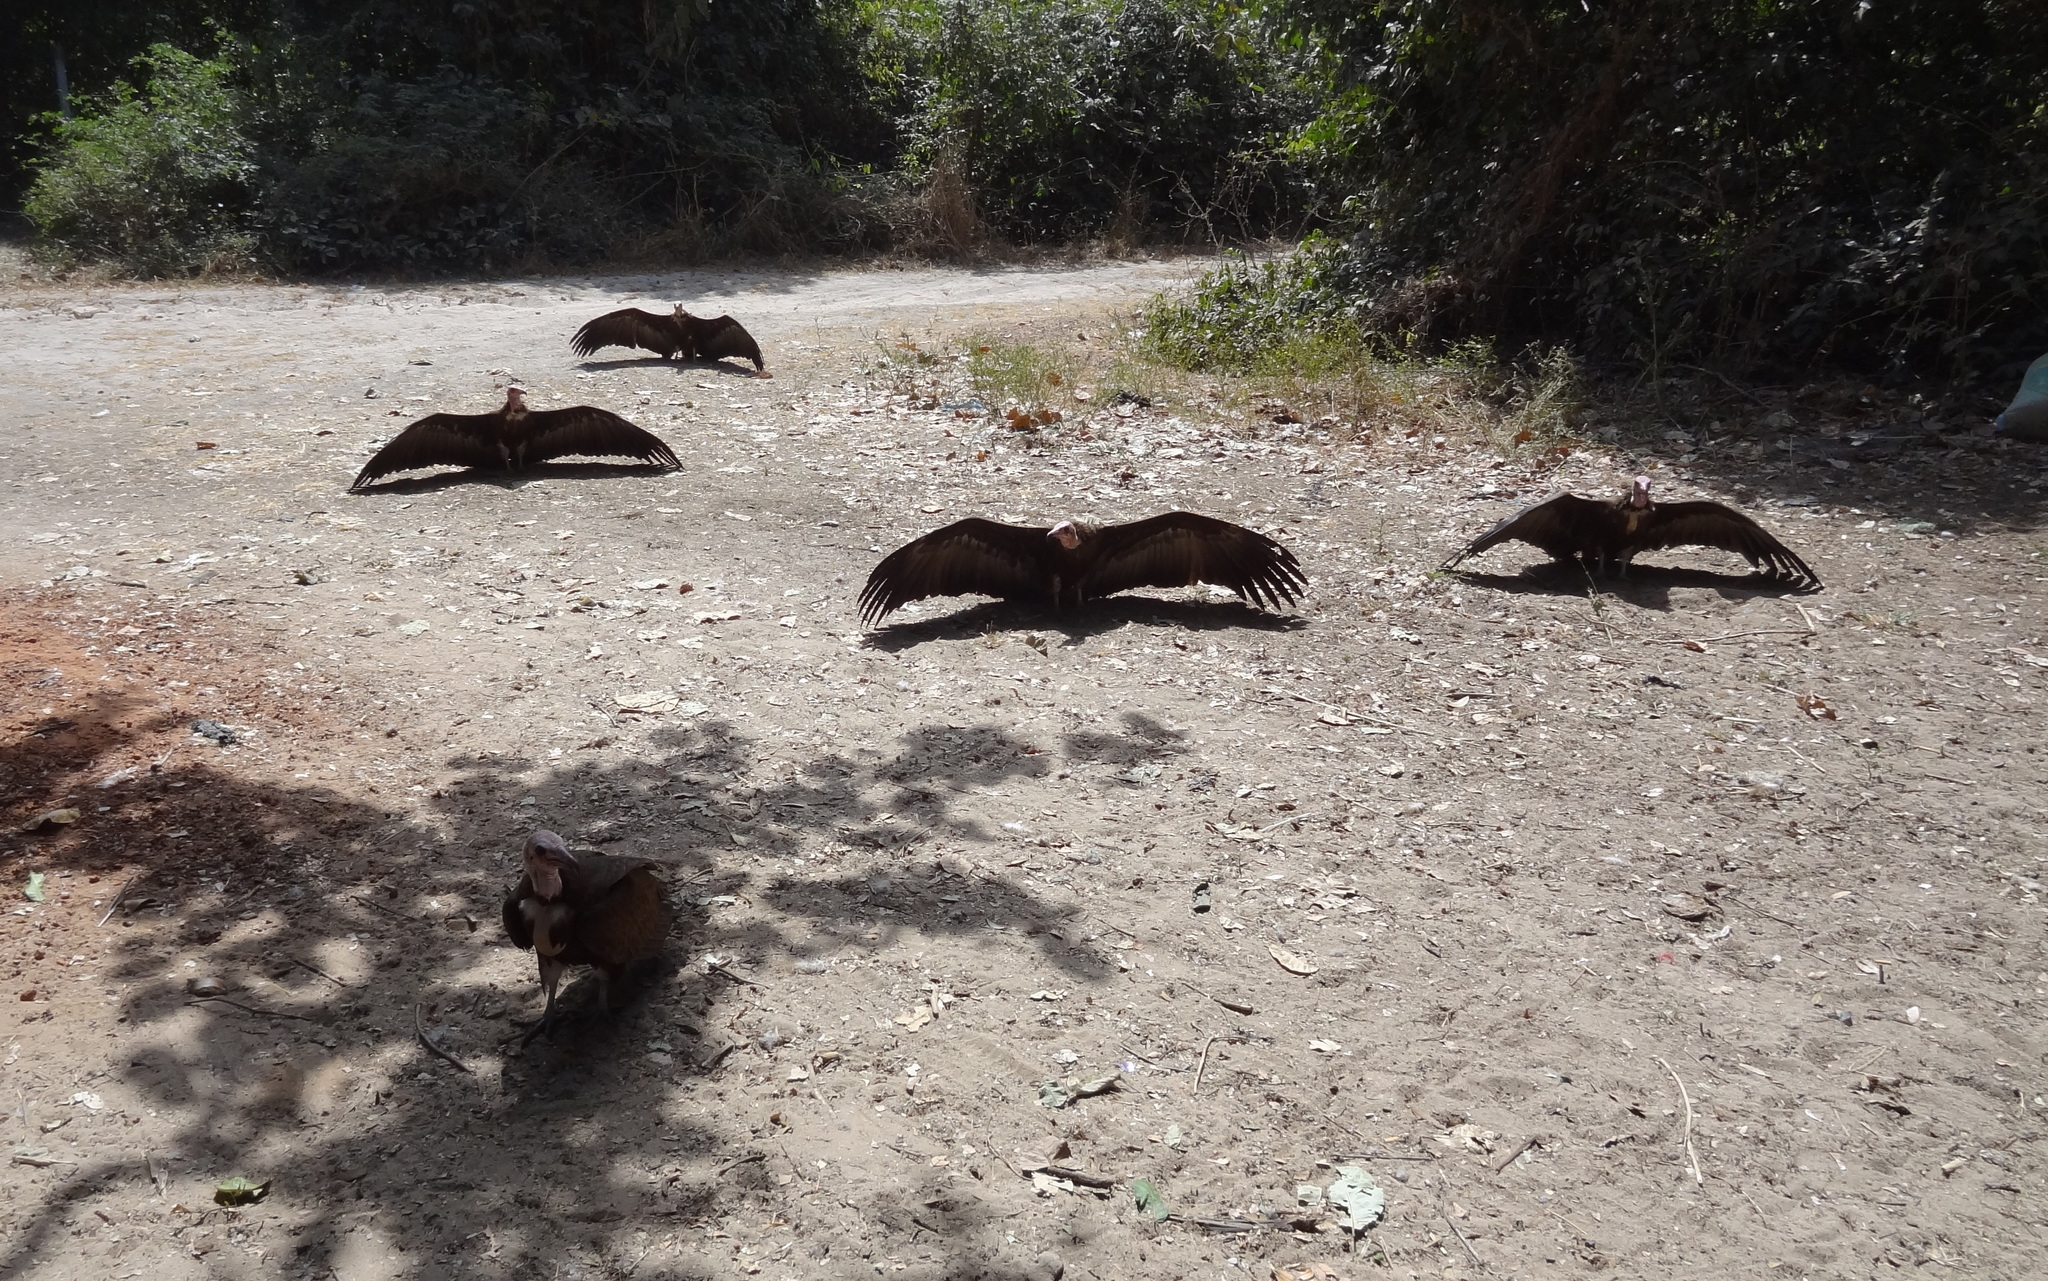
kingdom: Animalia
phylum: Chordata
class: Aves
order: Accipitriformes
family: Accipitridae
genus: Necrosyrtes
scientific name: Necrosyrtes monachus
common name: Hooded vulture
